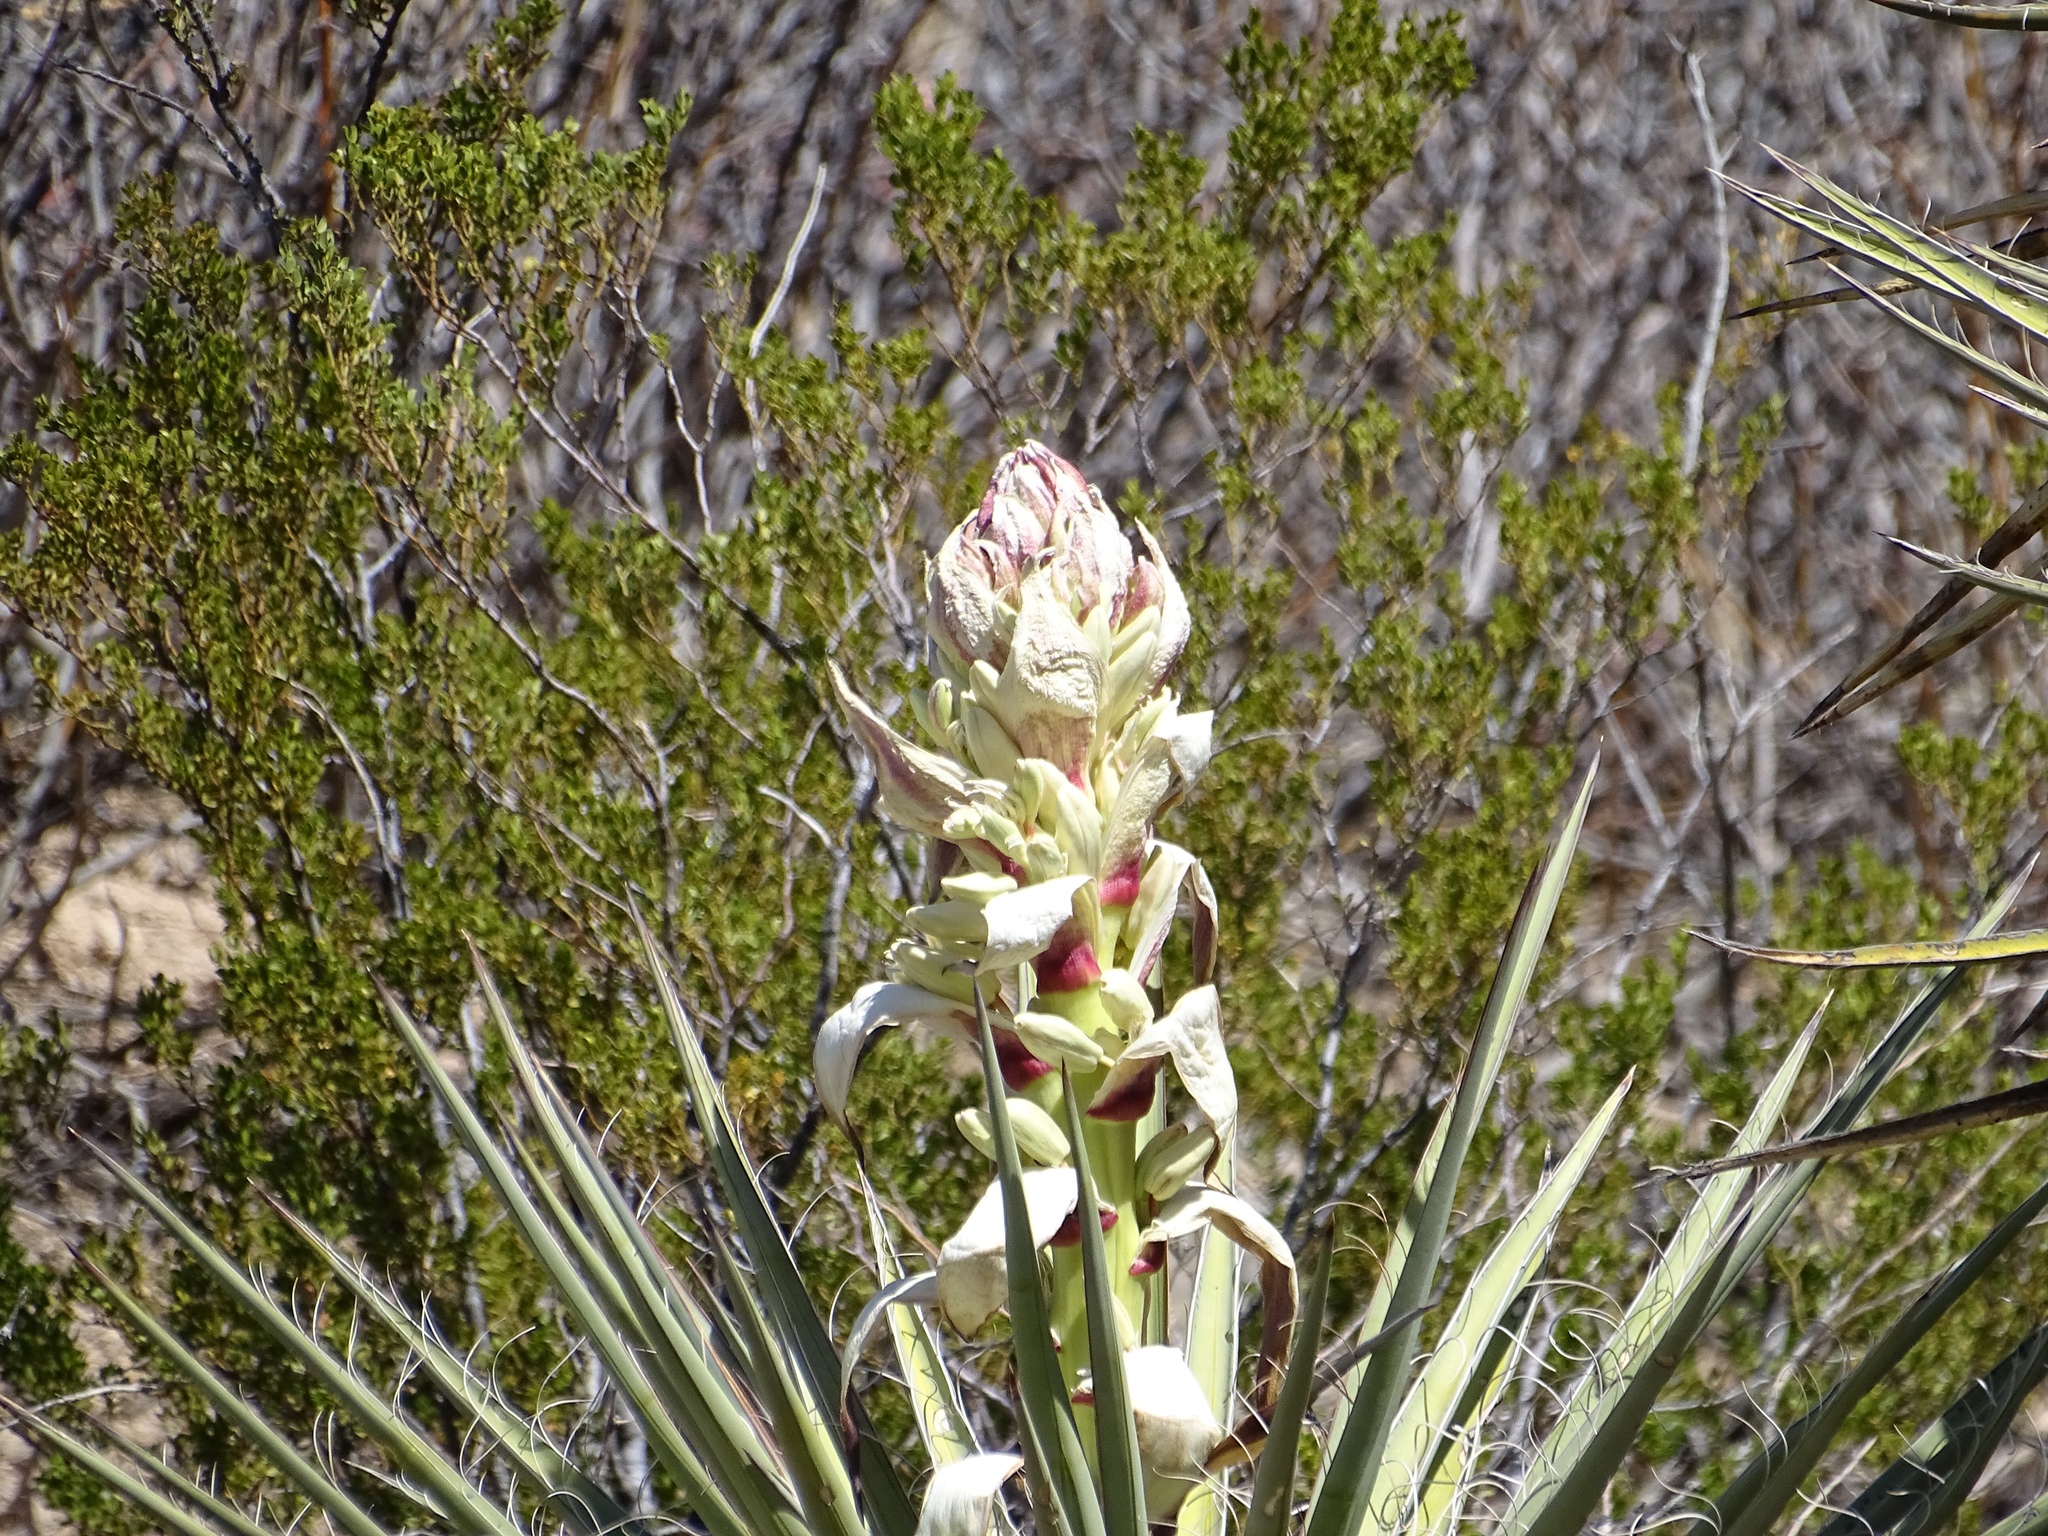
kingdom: Plantae
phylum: Tracheophyta
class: Liliopsida
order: Asparagales
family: Asparagaceae
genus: Yucca
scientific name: Yucca treculiana
